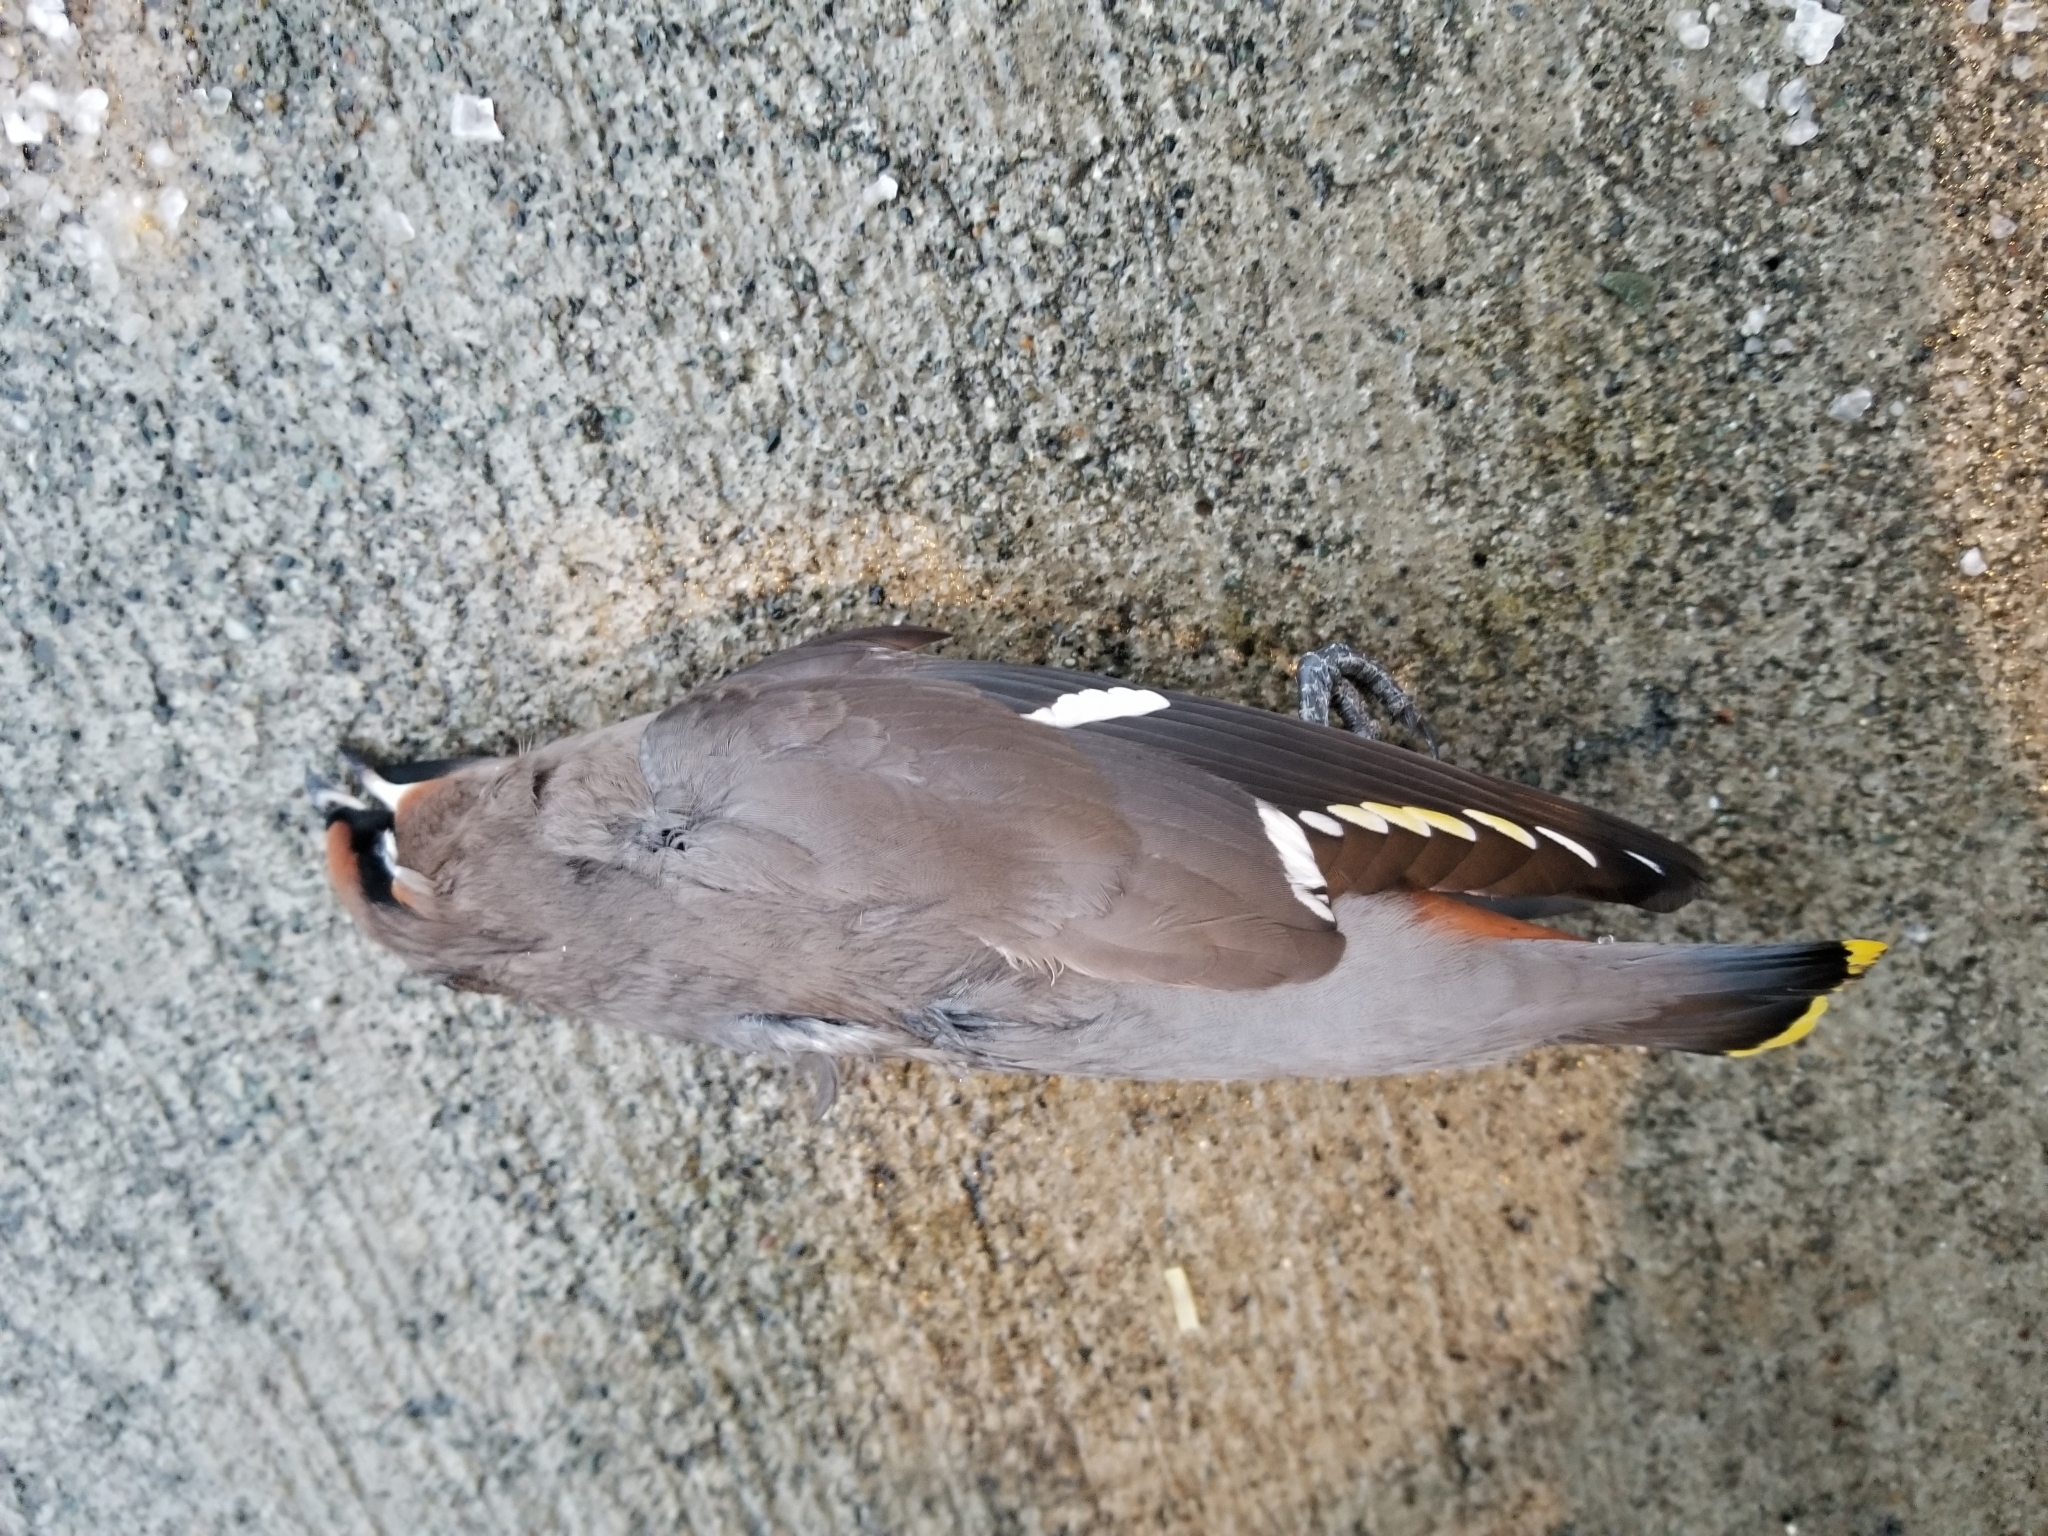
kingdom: Animalia
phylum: Chordata
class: Aves
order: Passeriformes
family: Bombycillidae
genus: Bombycilla
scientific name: Bombycilla garrulus
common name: Bohemian waxwing
